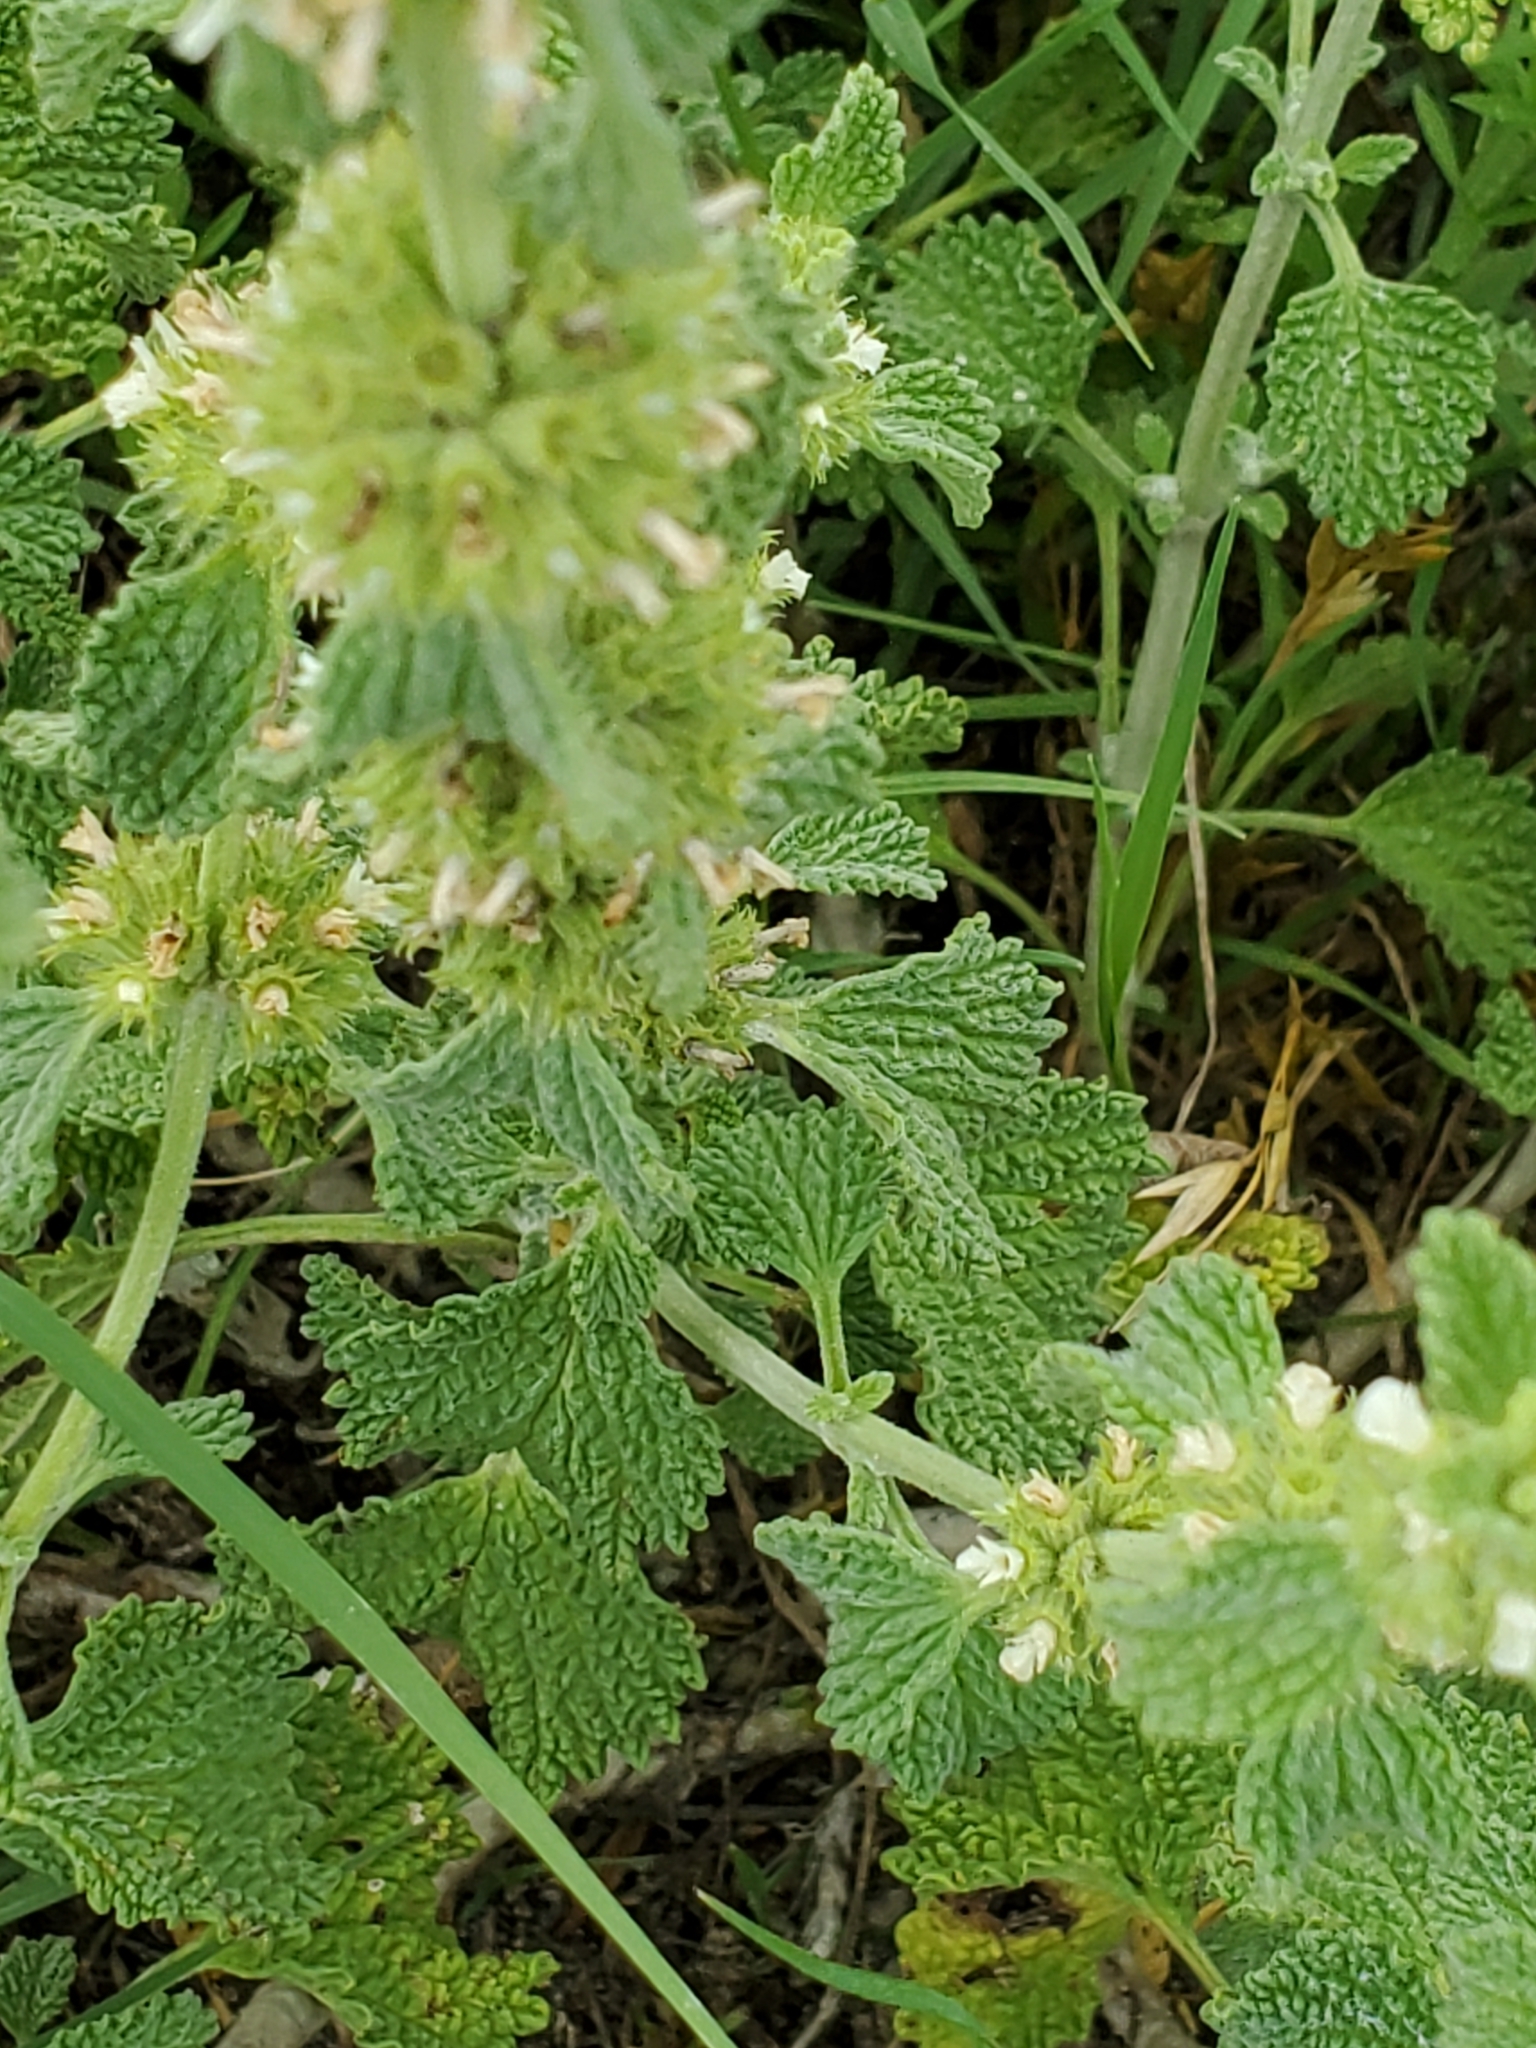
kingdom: Plantae
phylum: Tracheophyta
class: Magnoliopsida
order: Lamiales
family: Lamiaceae
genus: Marrubium
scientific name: Marrubium vulgare
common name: Horehound
